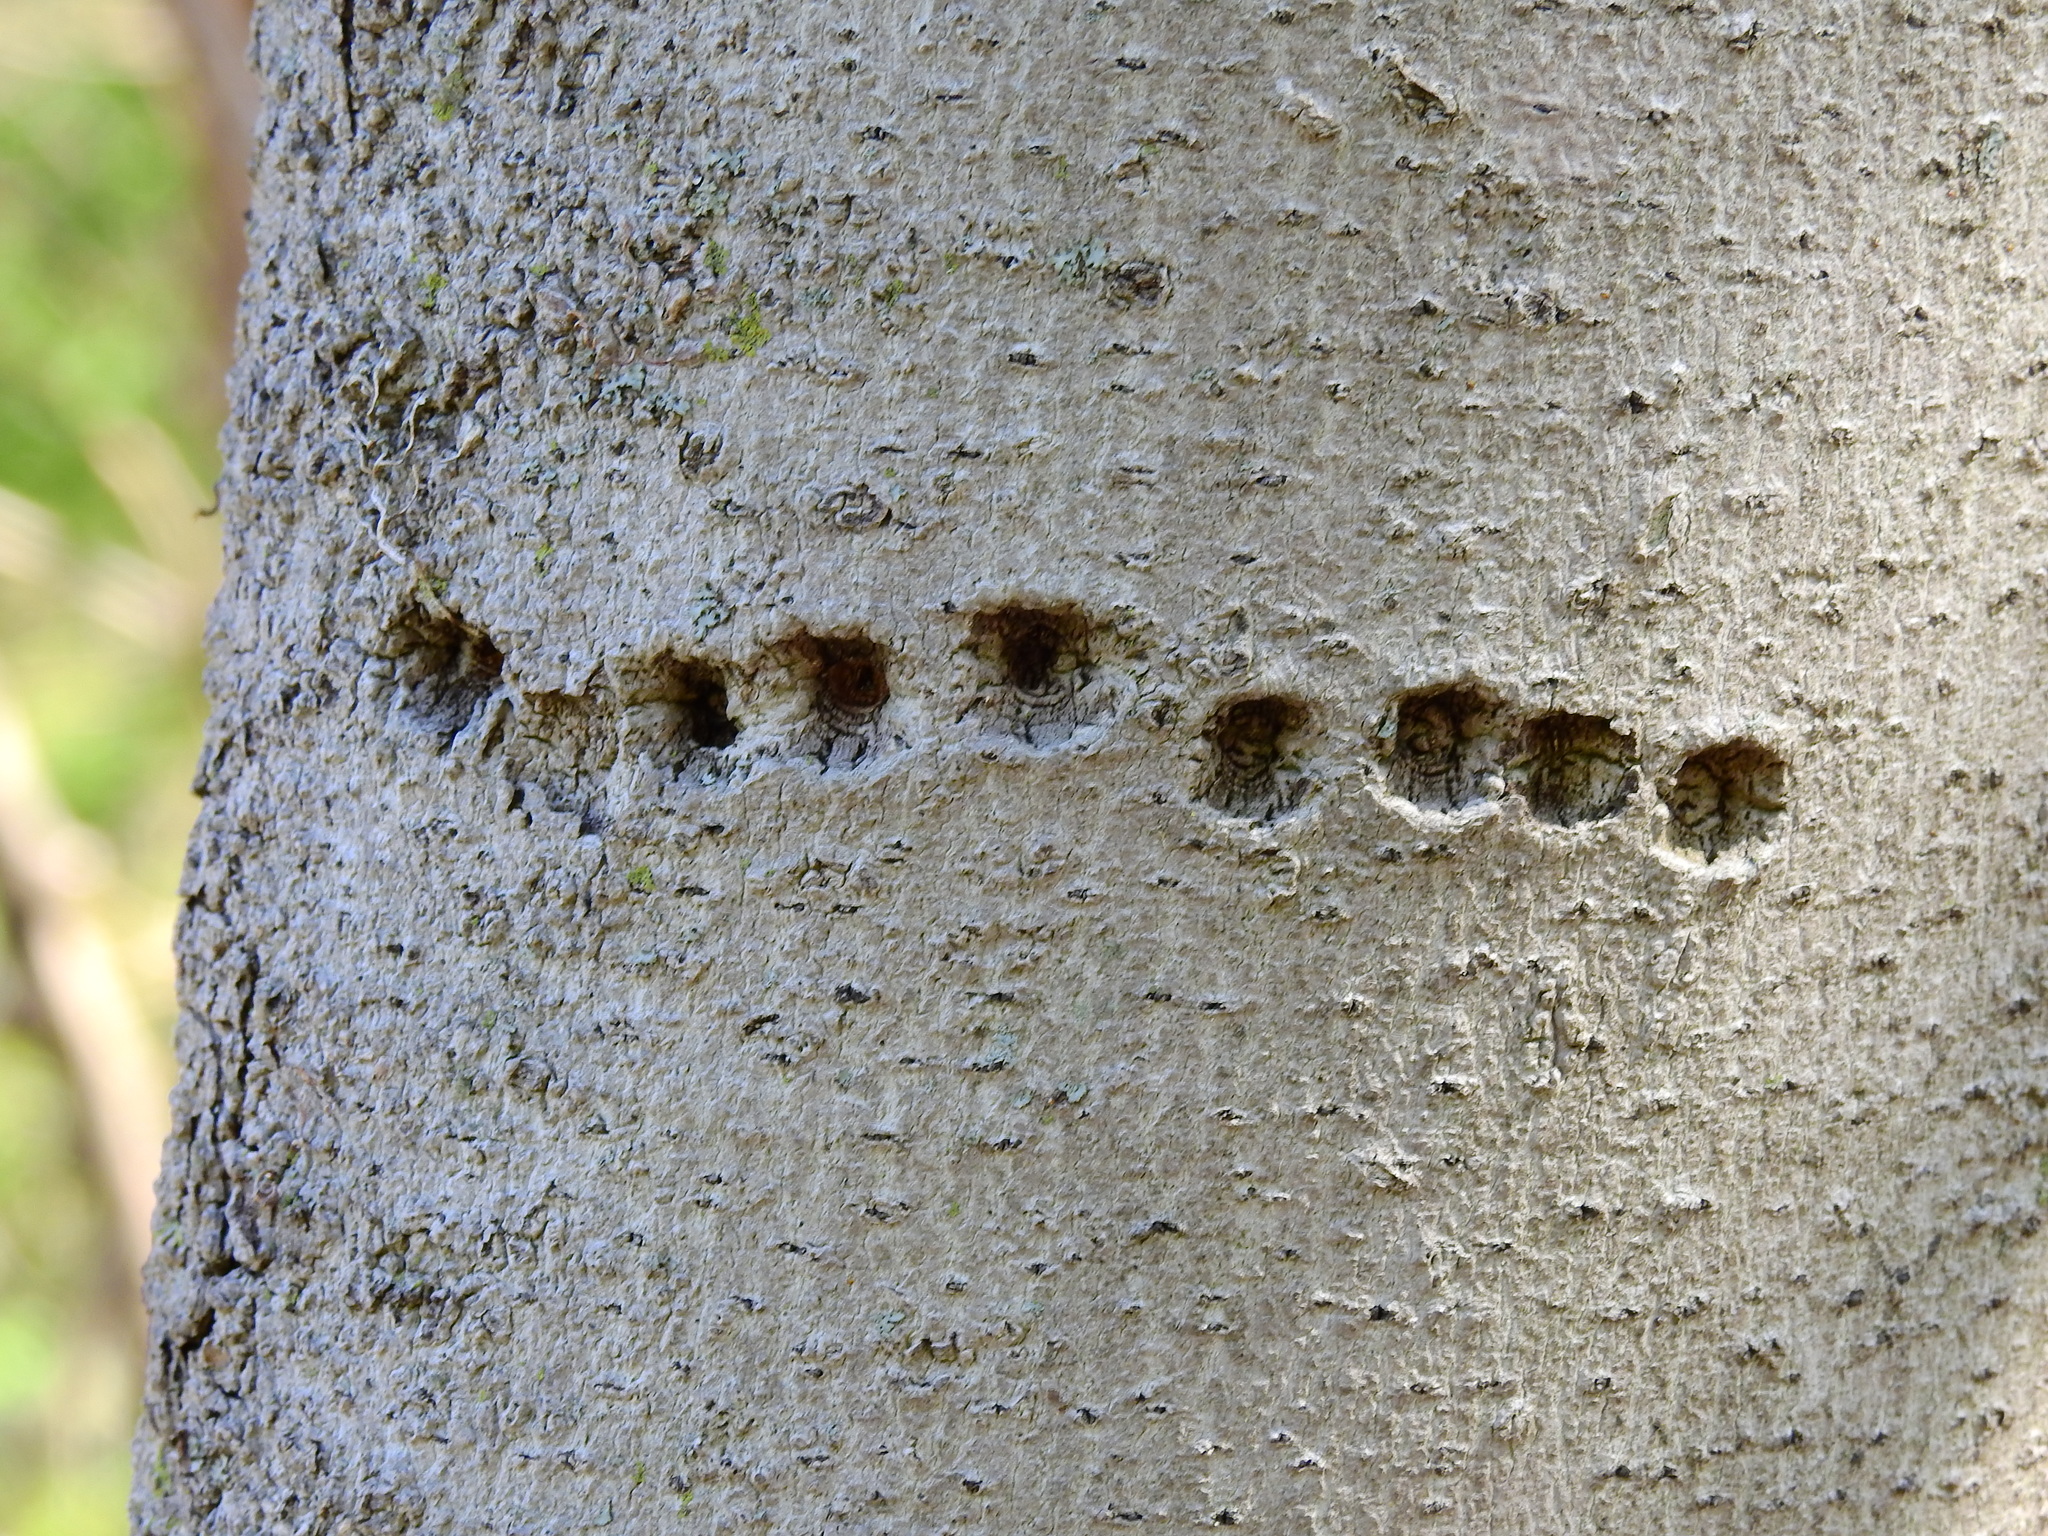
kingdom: Animalia
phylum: Chordata
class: Aves
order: Piciformes
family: Picidae
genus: Sphyrapicus
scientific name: Sphyrapicus varius
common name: Yellow-bellied sapsucker
